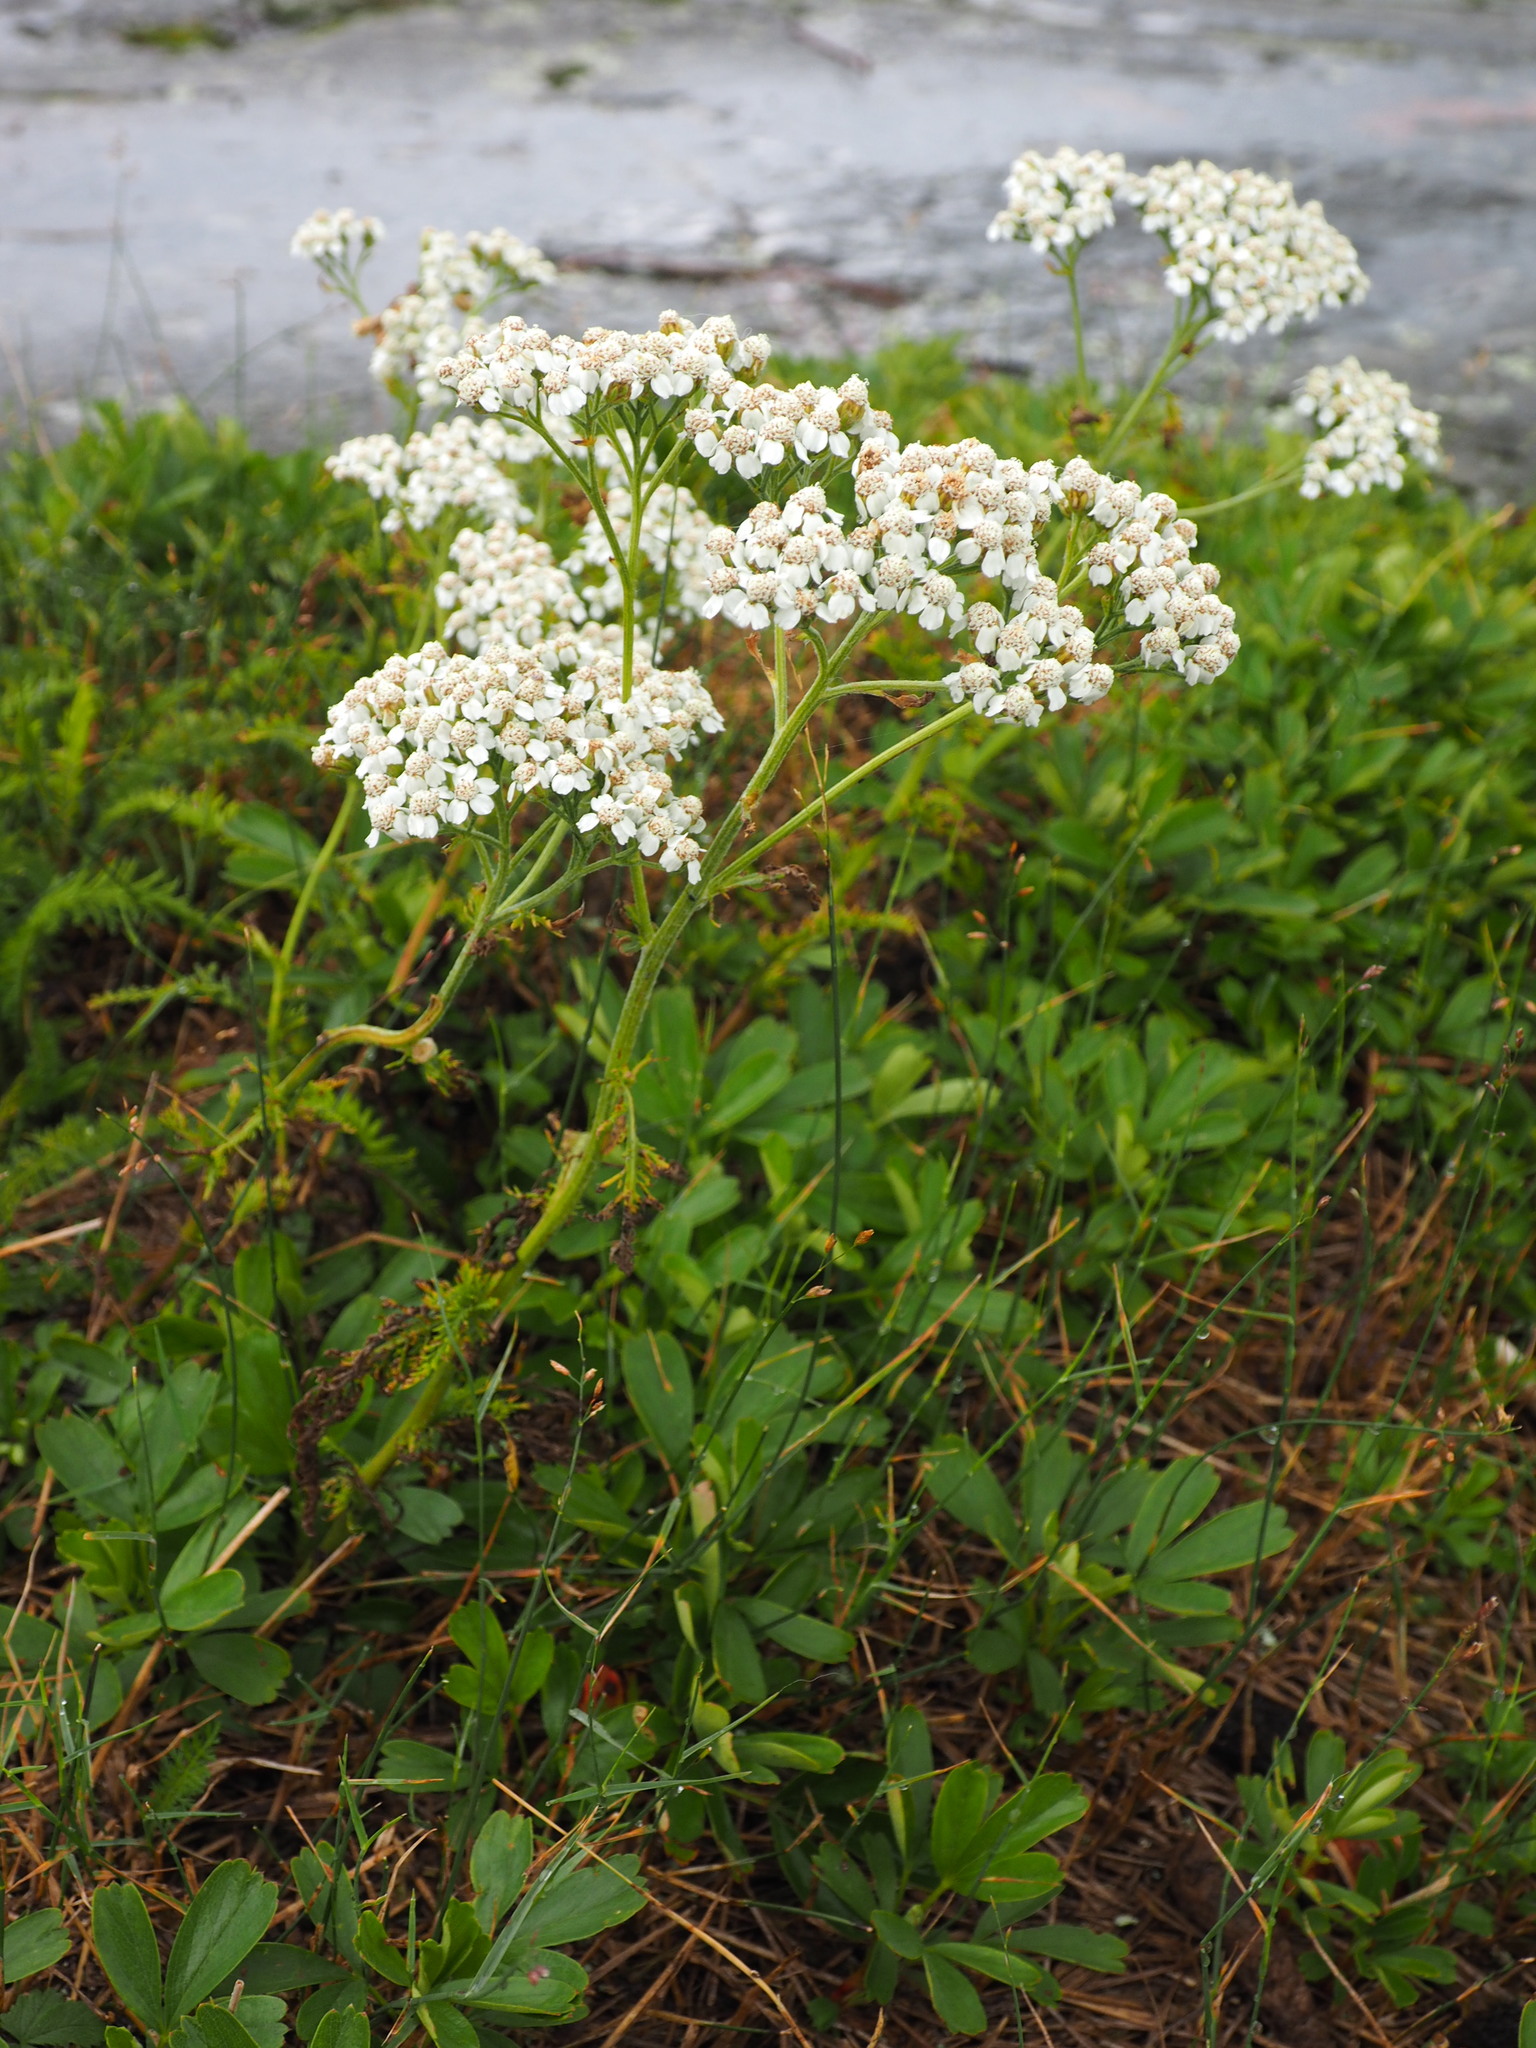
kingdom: Plantae
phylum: Tracheophyta
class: Magnoliopsida
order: Asterales
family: Asteraceae
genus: Achillea
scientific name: Achillea millefolium
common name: Yarrow
